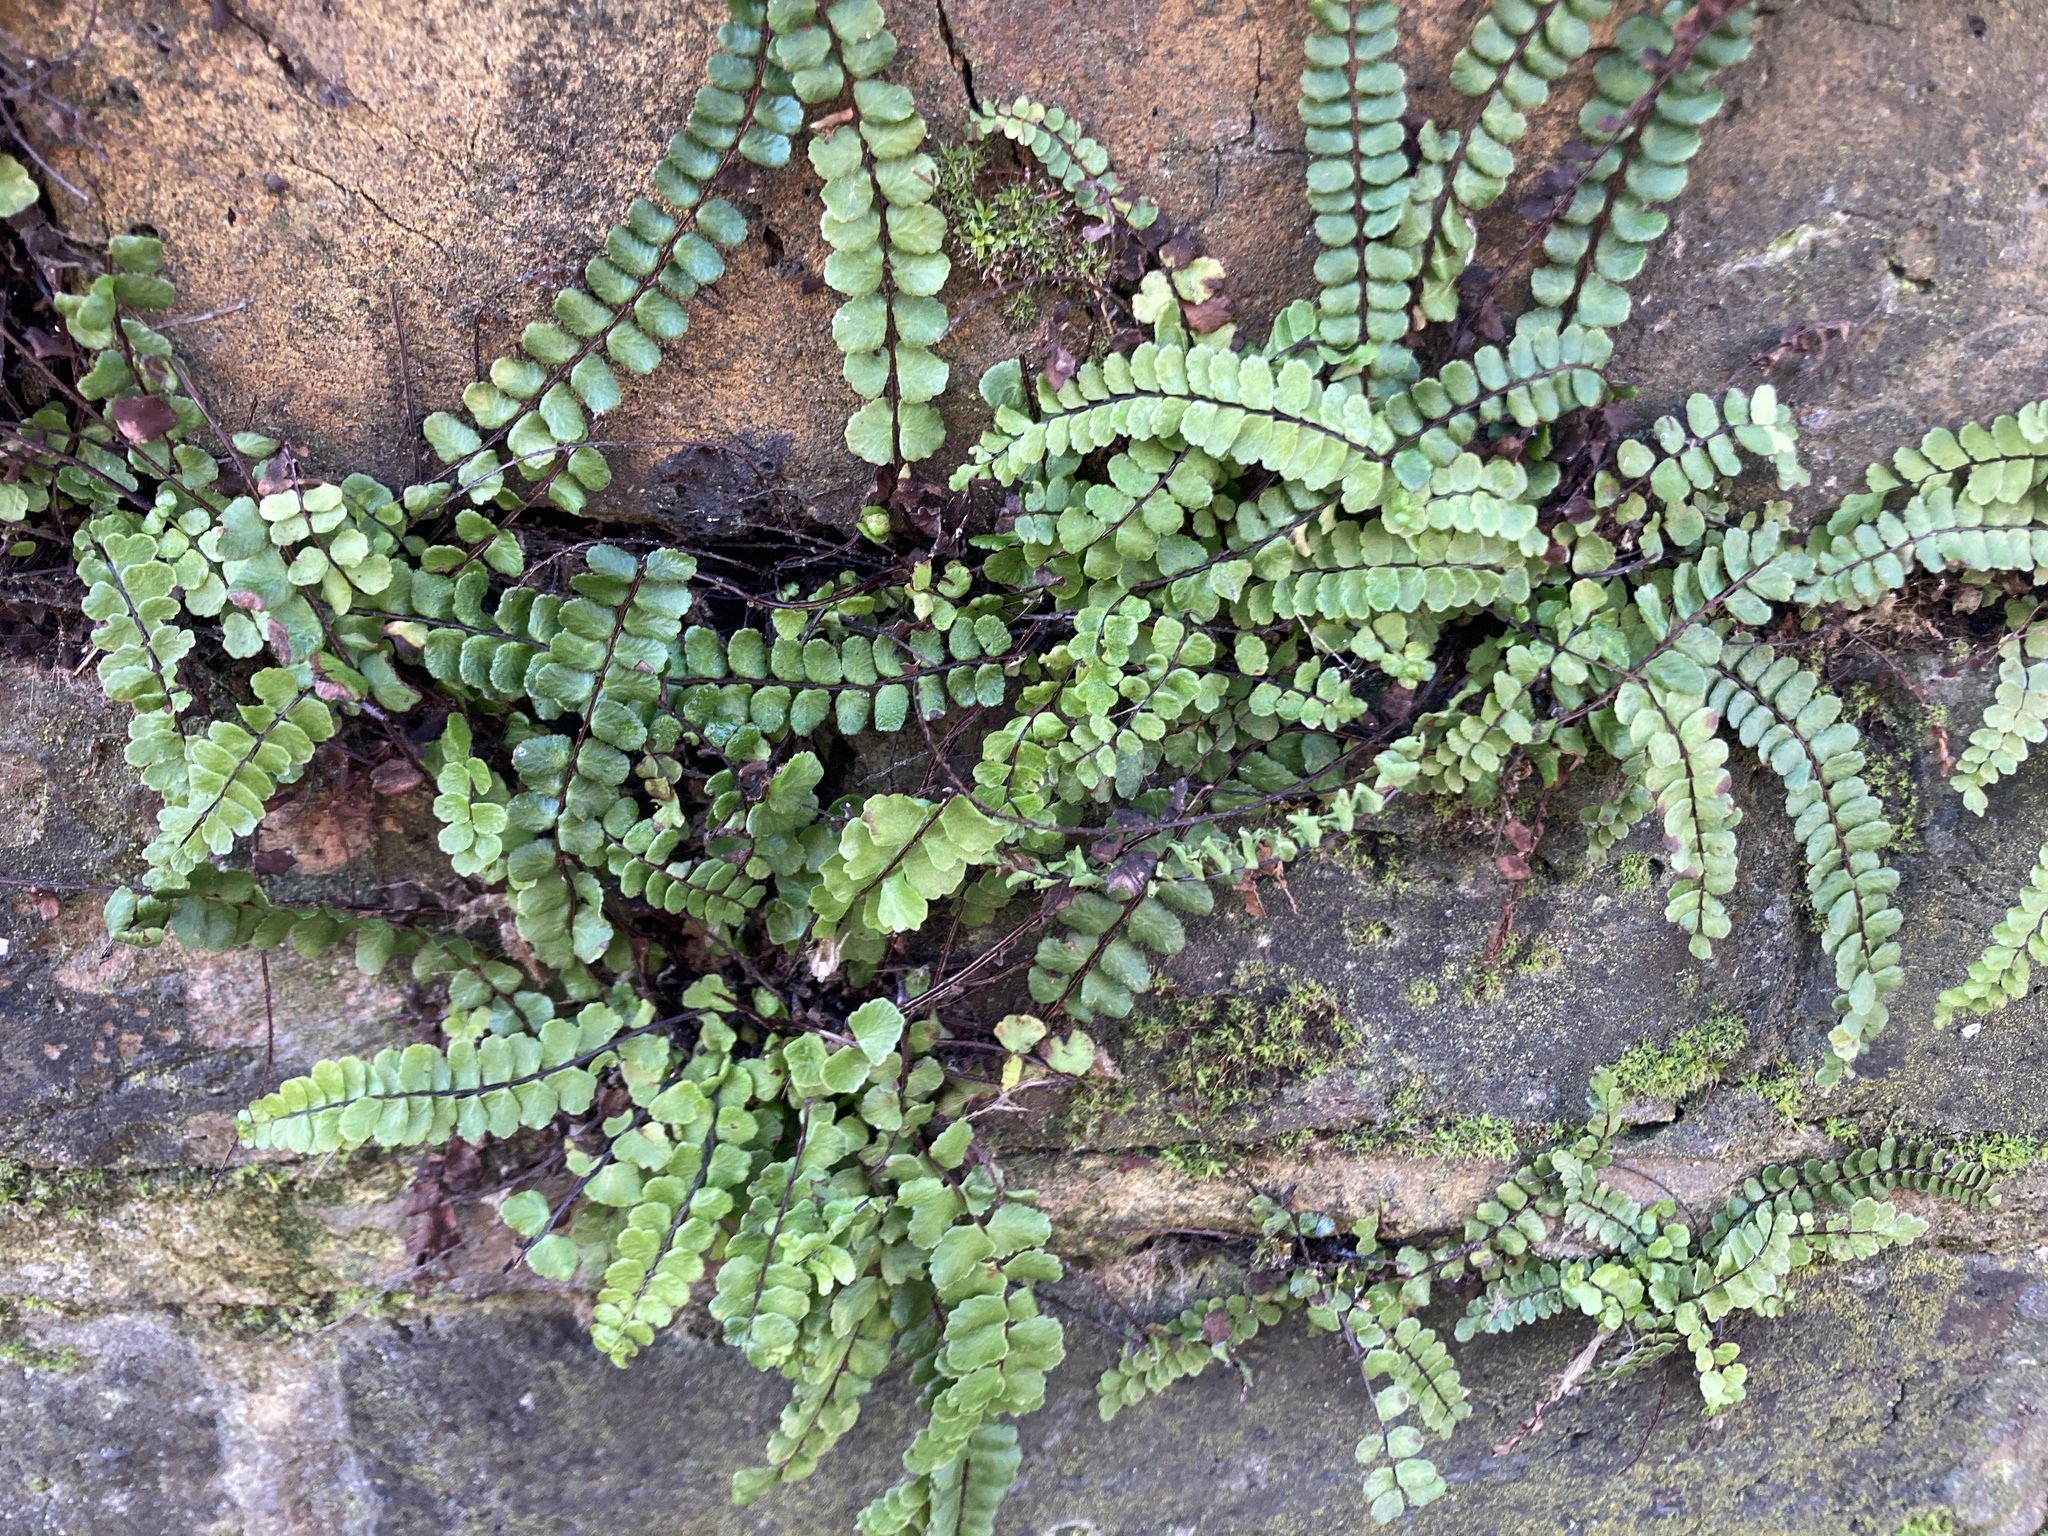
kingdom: Plantae
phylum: Tracheophyta
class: Polypodiopsida
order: Polypodiales
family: Aspleniaceae
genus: Asplenium
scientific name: Asplenium trichomanes
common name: Maidenhair spleenwort
